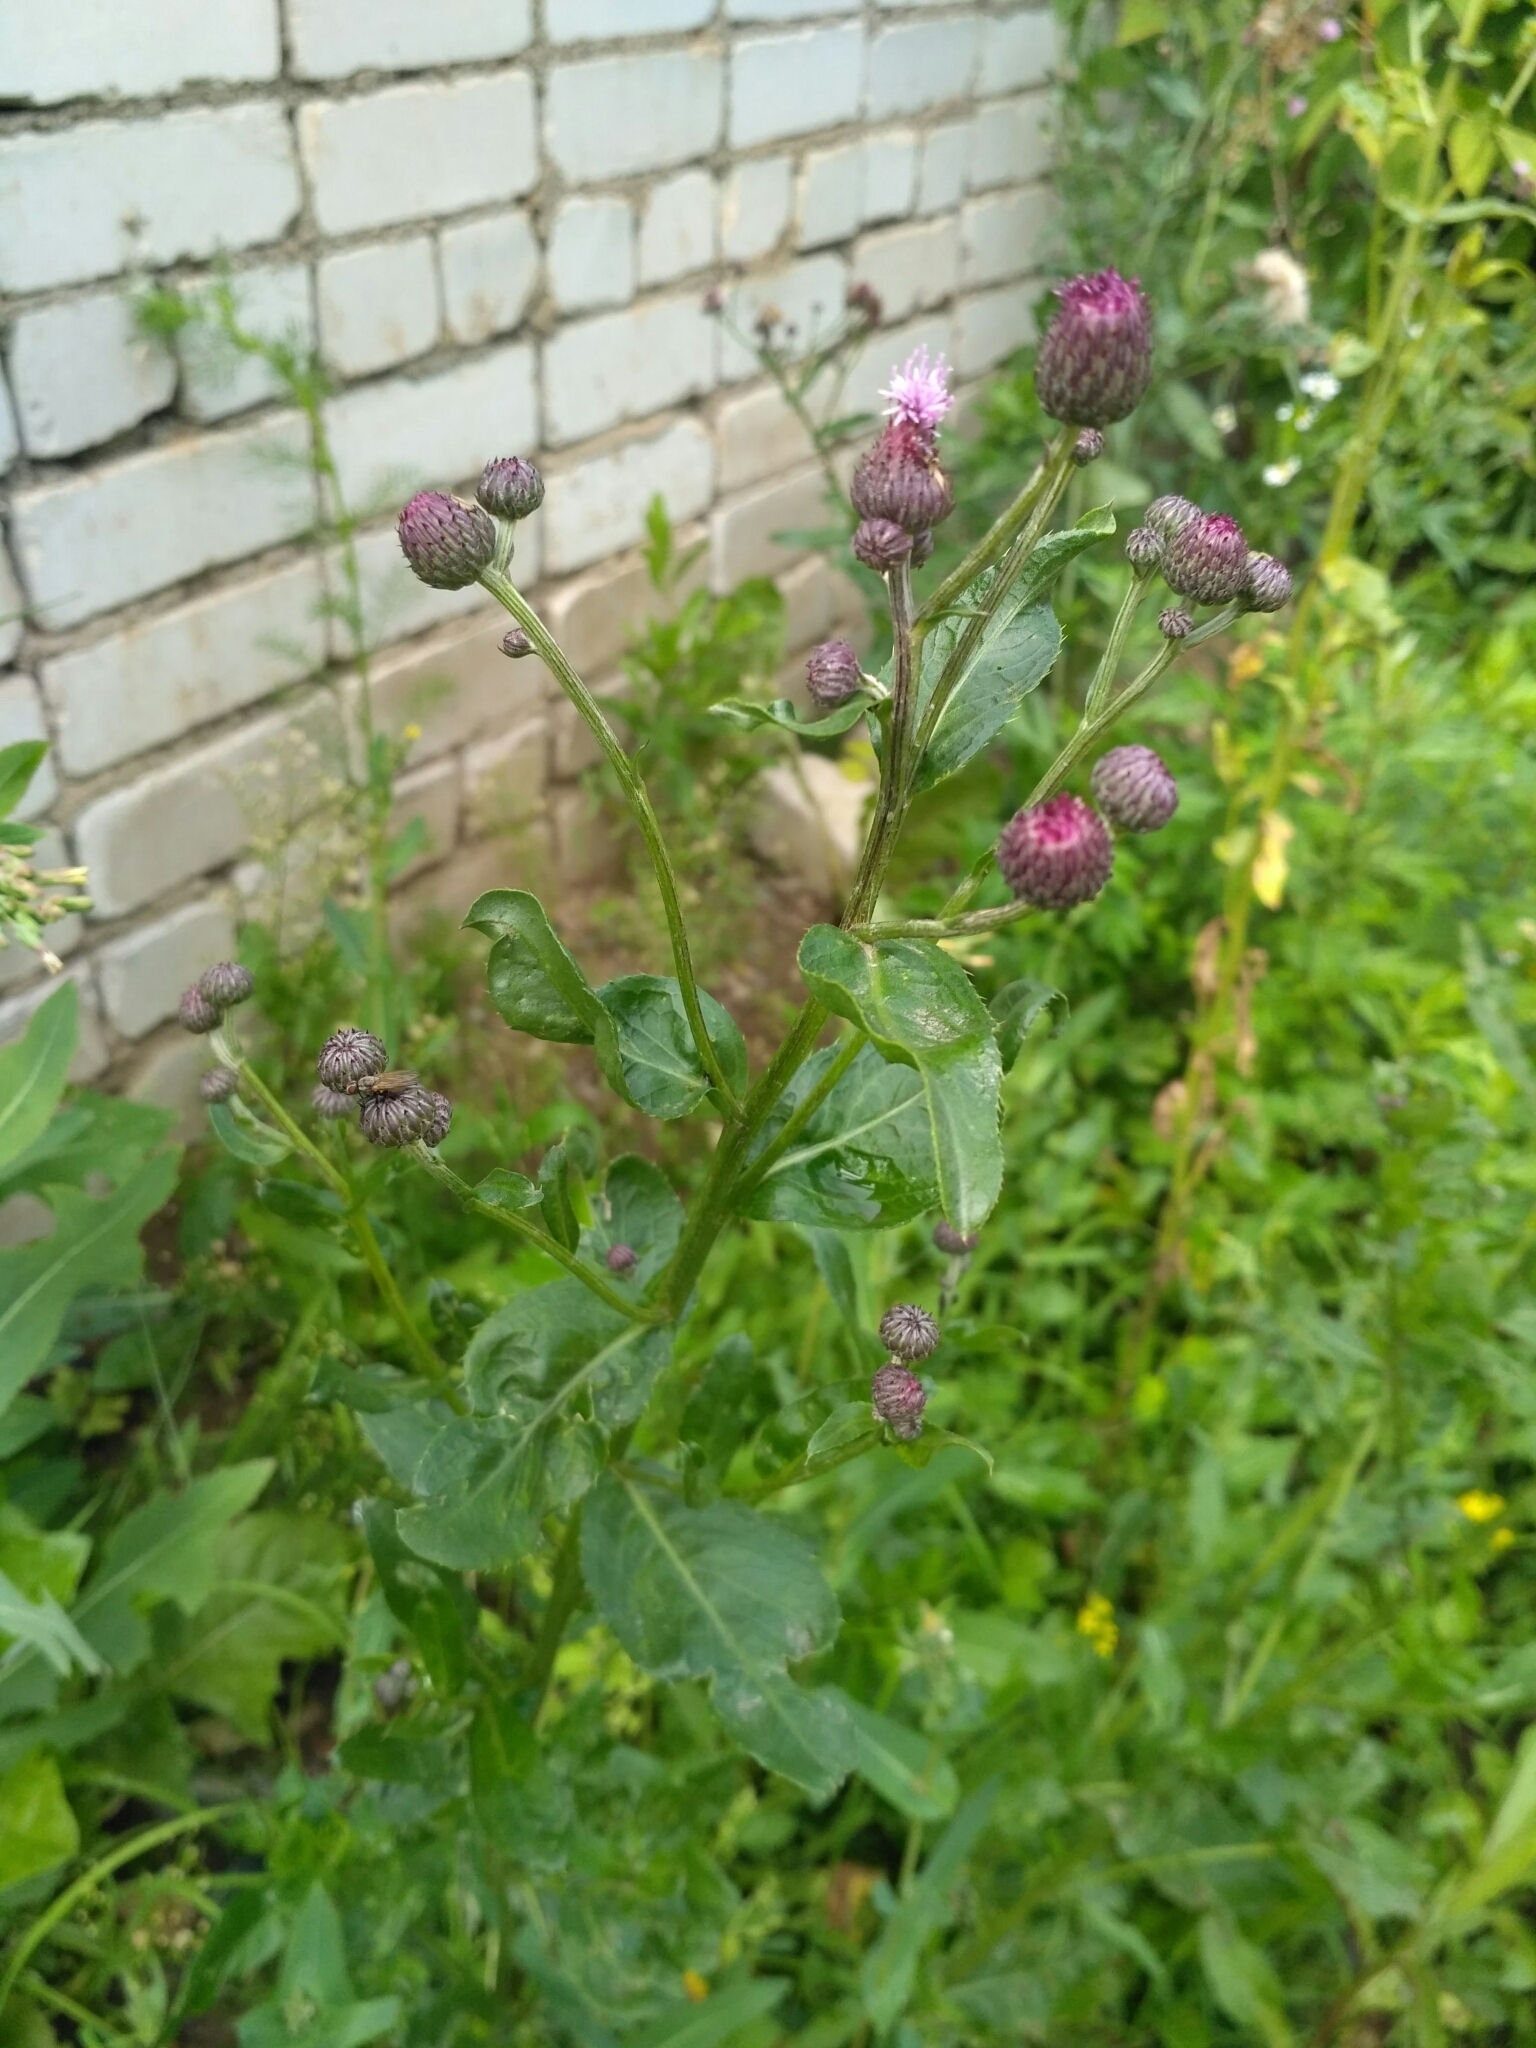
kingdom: Plantae
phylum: Tracheophyta
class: Magnoliopsida
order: Asterales
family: Asteraceae
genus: Cirsium
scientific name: Cirsium arvense
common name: Creeping thistle
